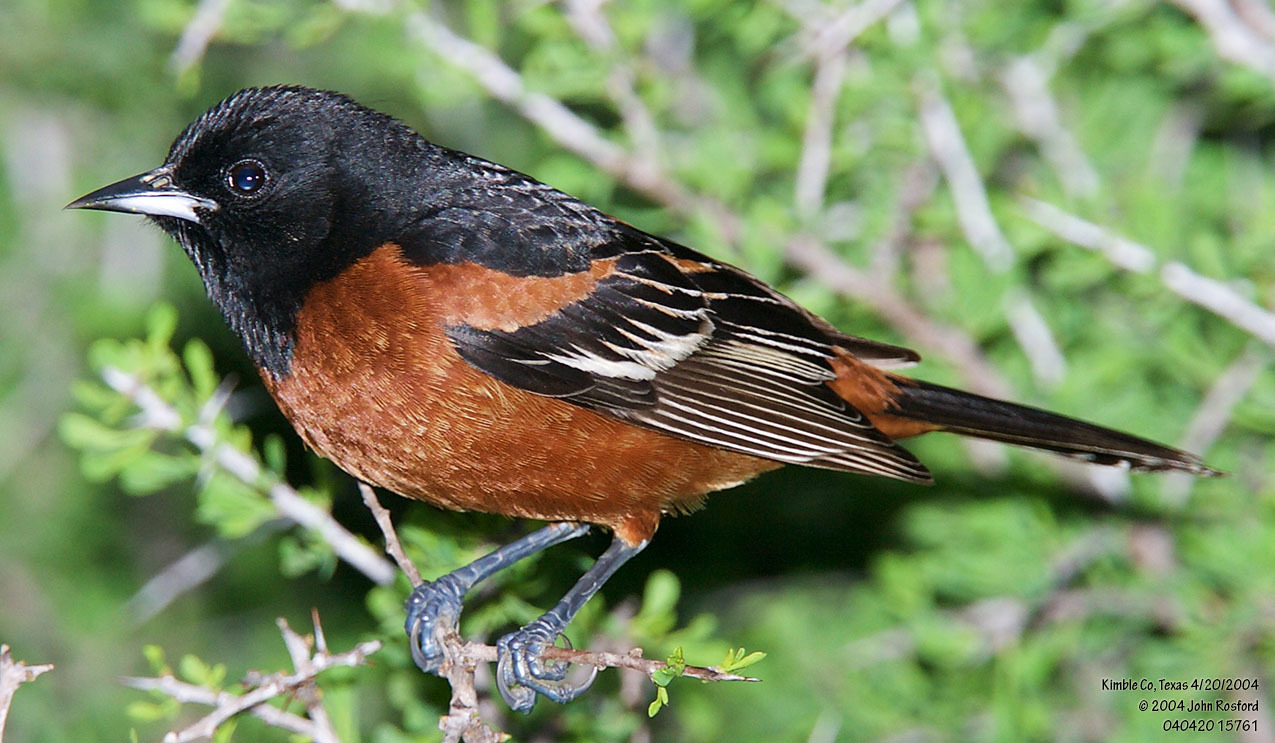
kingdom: Animalia
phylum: Chordata
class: Aves
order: Passeriformes
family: Icteridae
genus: Icterus
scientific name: Icterus spurius
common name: Orchard oriole
